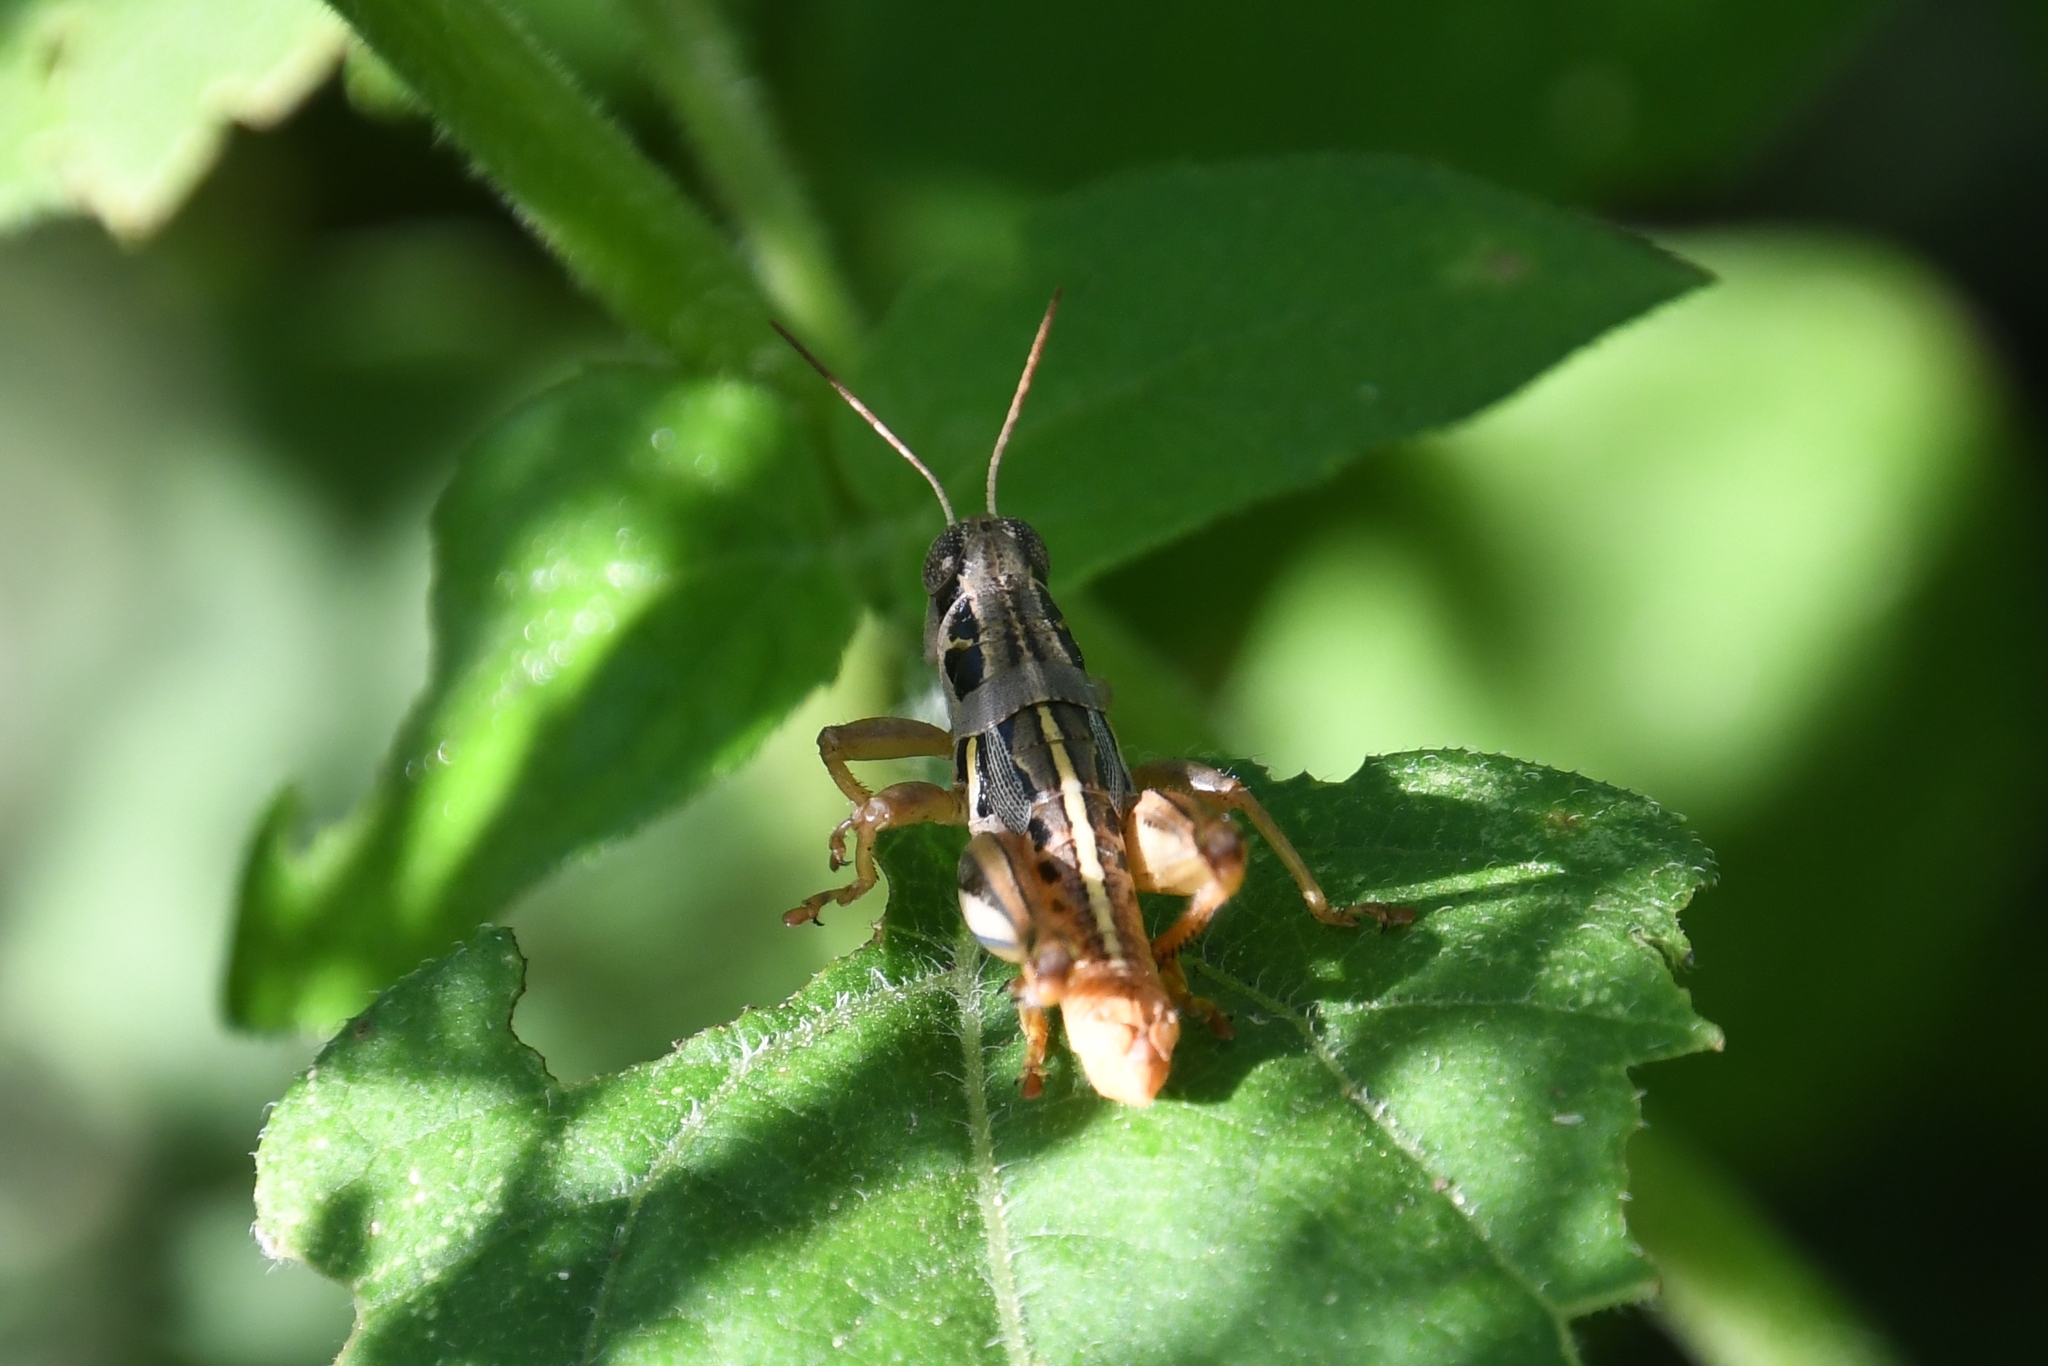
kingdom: Animalia
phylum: Arthropoda
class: Insecta
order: Orthoptera
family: Acrididae
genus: Barytettix
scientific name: Barytettix humphreysii
